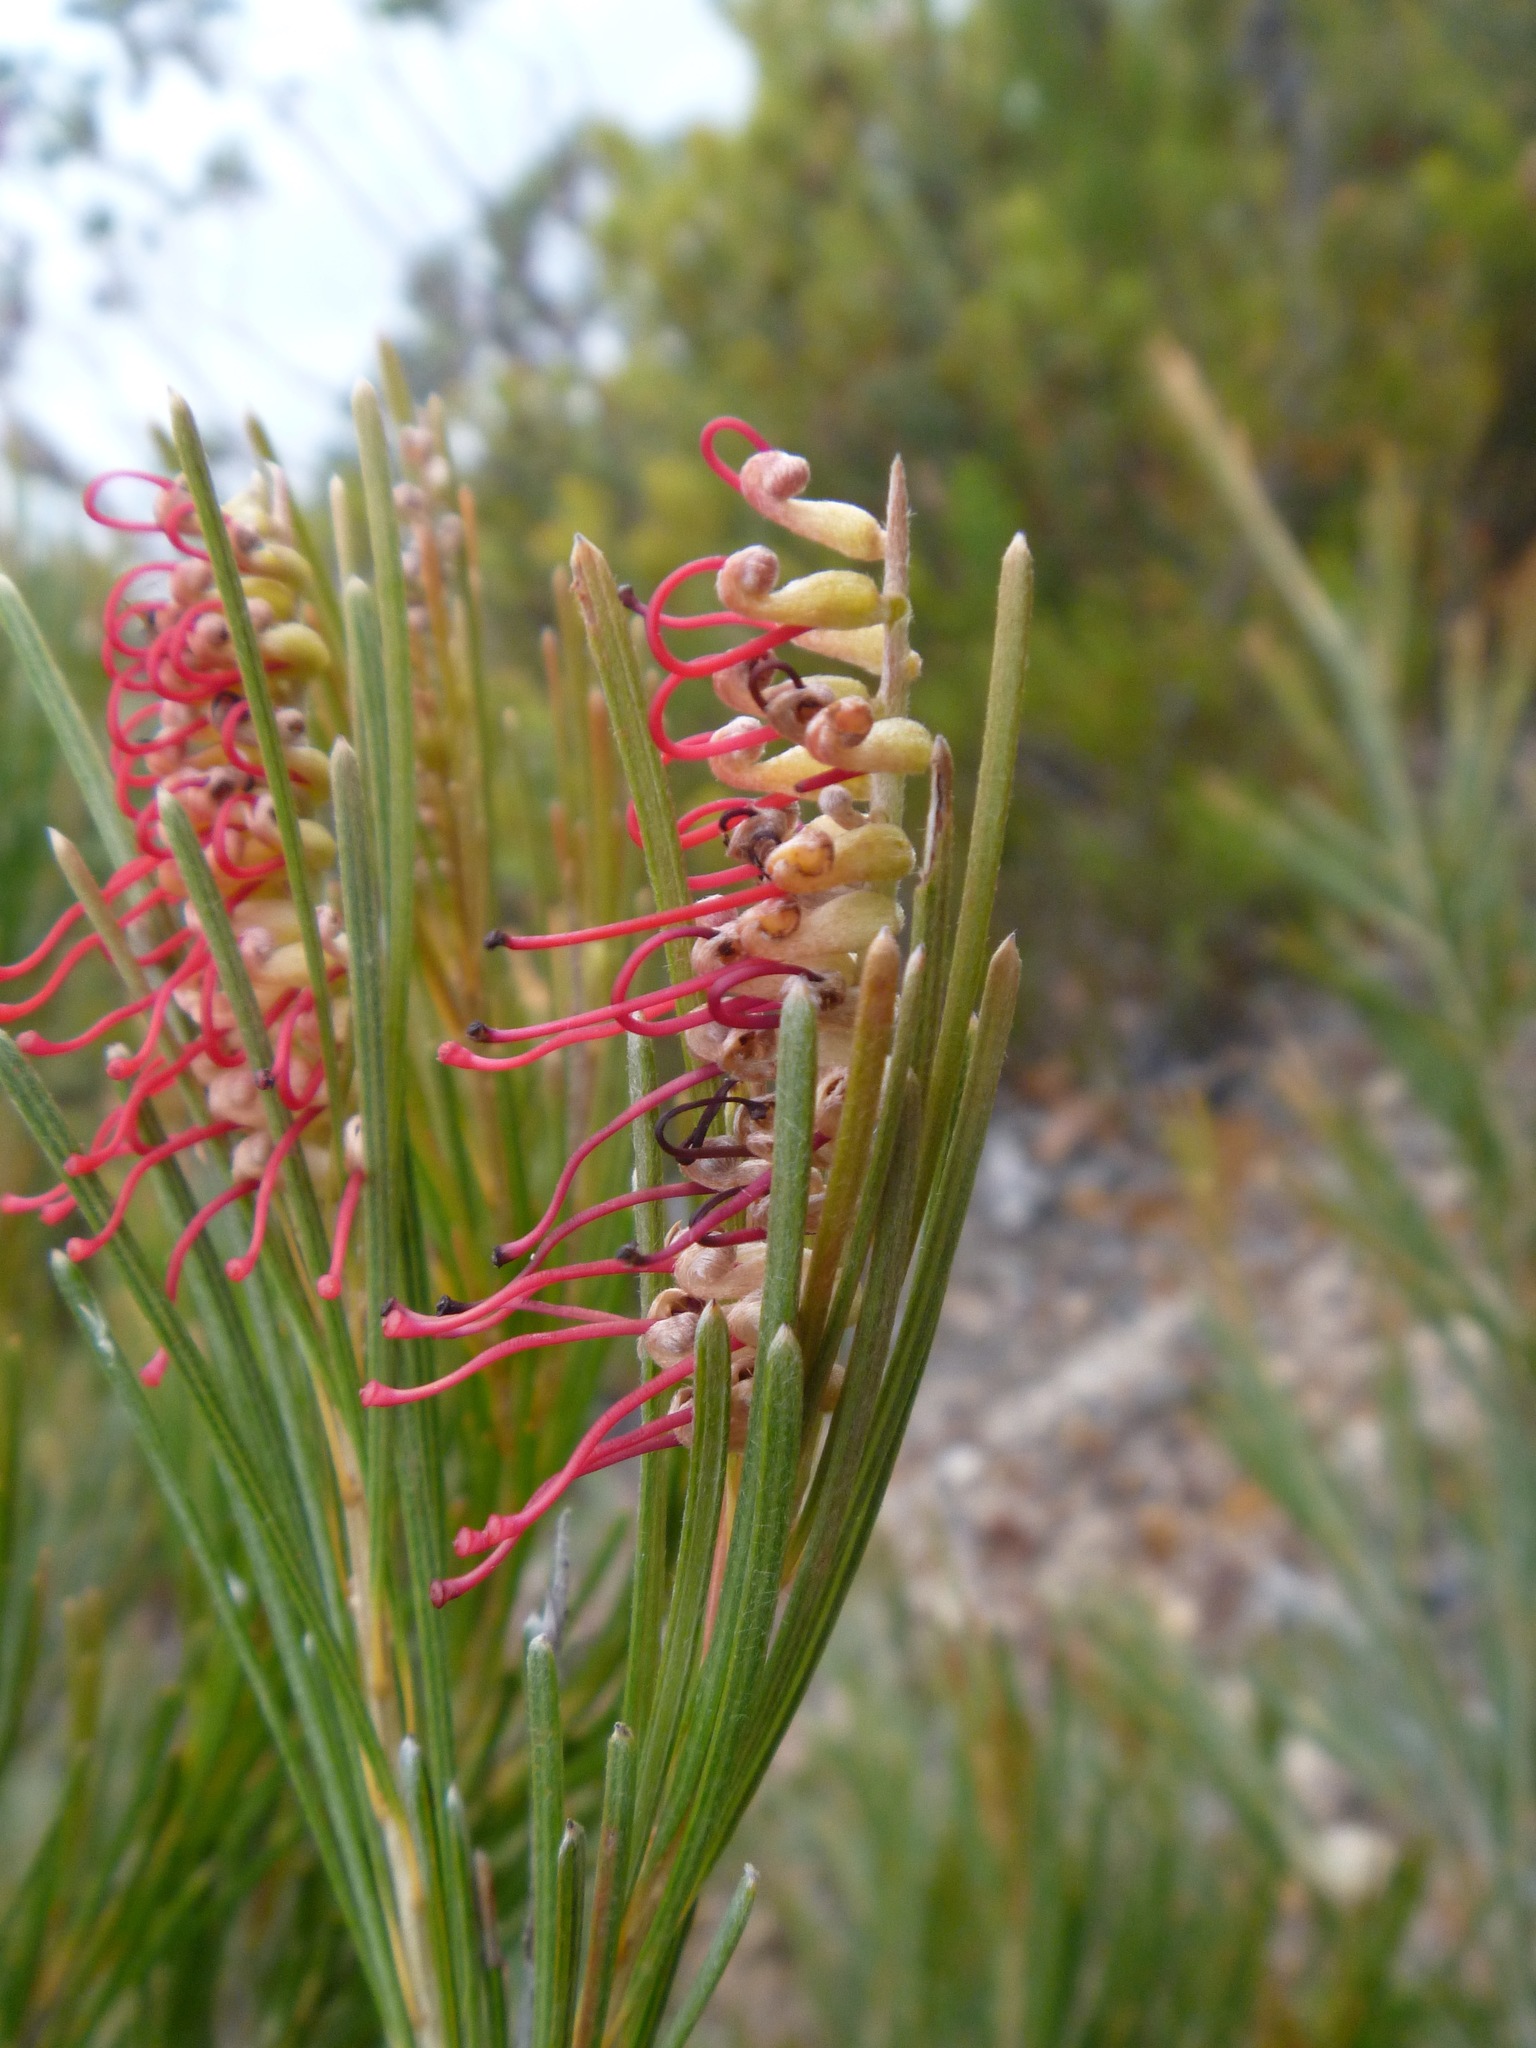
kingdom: Plantae
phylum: Tracheophyta
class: Magnoliopsida
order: Proteales
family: Proteaceae
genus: Grevillea
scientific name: Grevillea hookeriana
